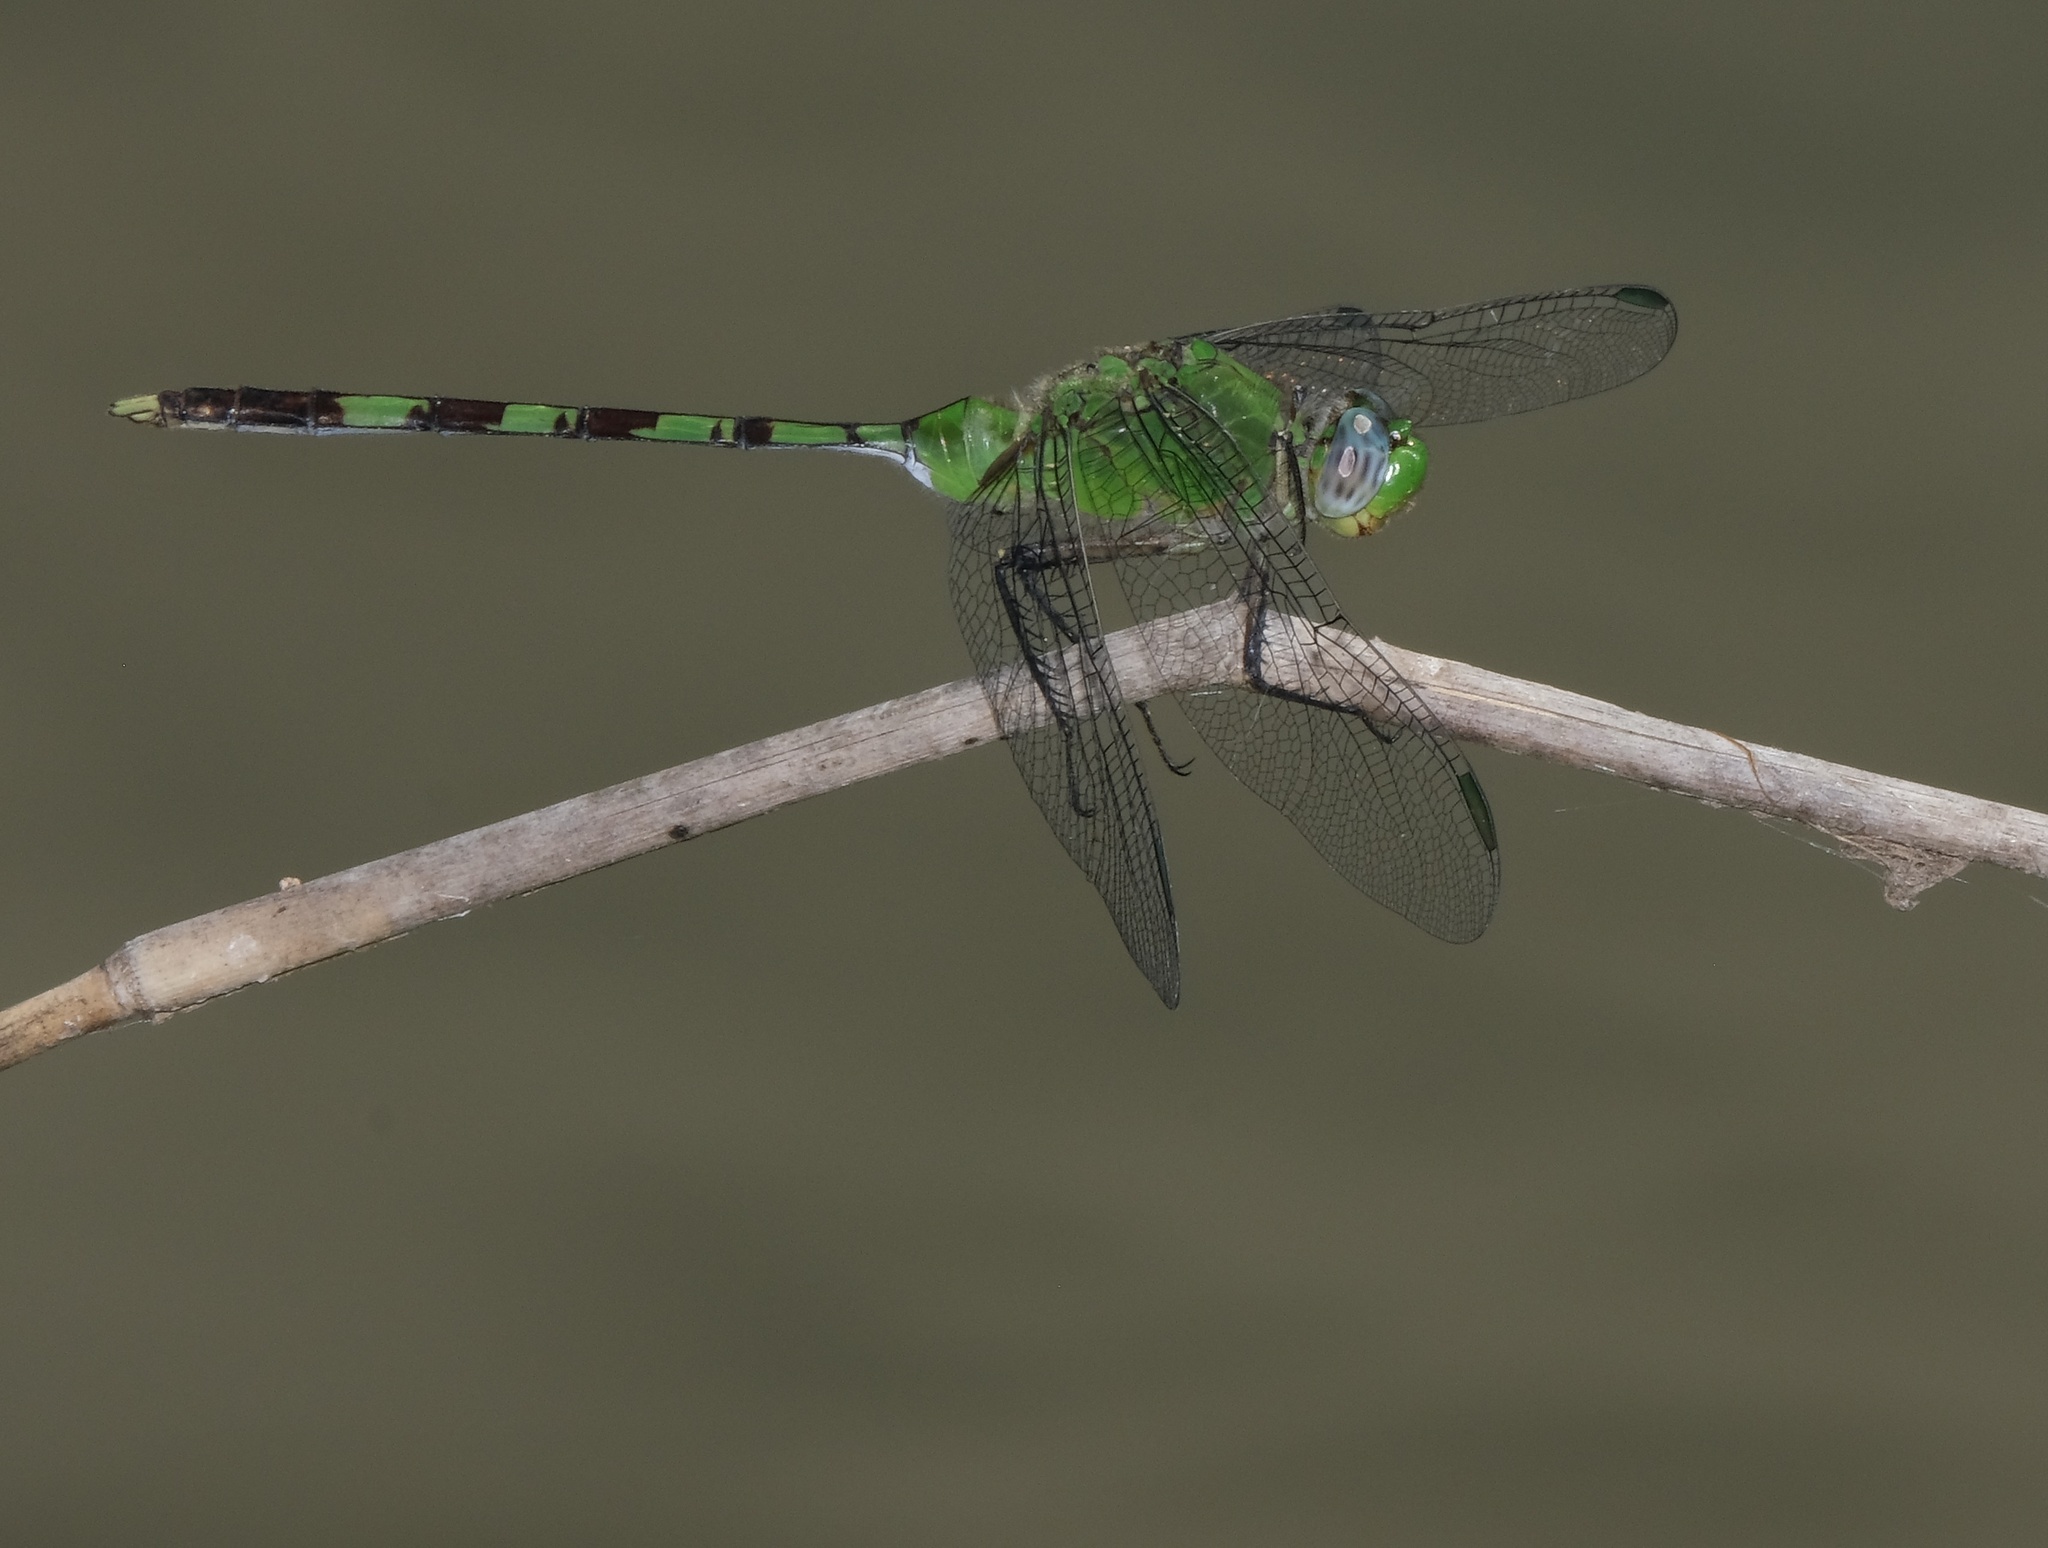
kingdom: Animalia
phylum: Arthropoda
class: Insecta
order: Odonata
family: Libellulidae
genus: Erythemis
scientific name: Erythemis vesiculosa
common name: Great pondhawk
